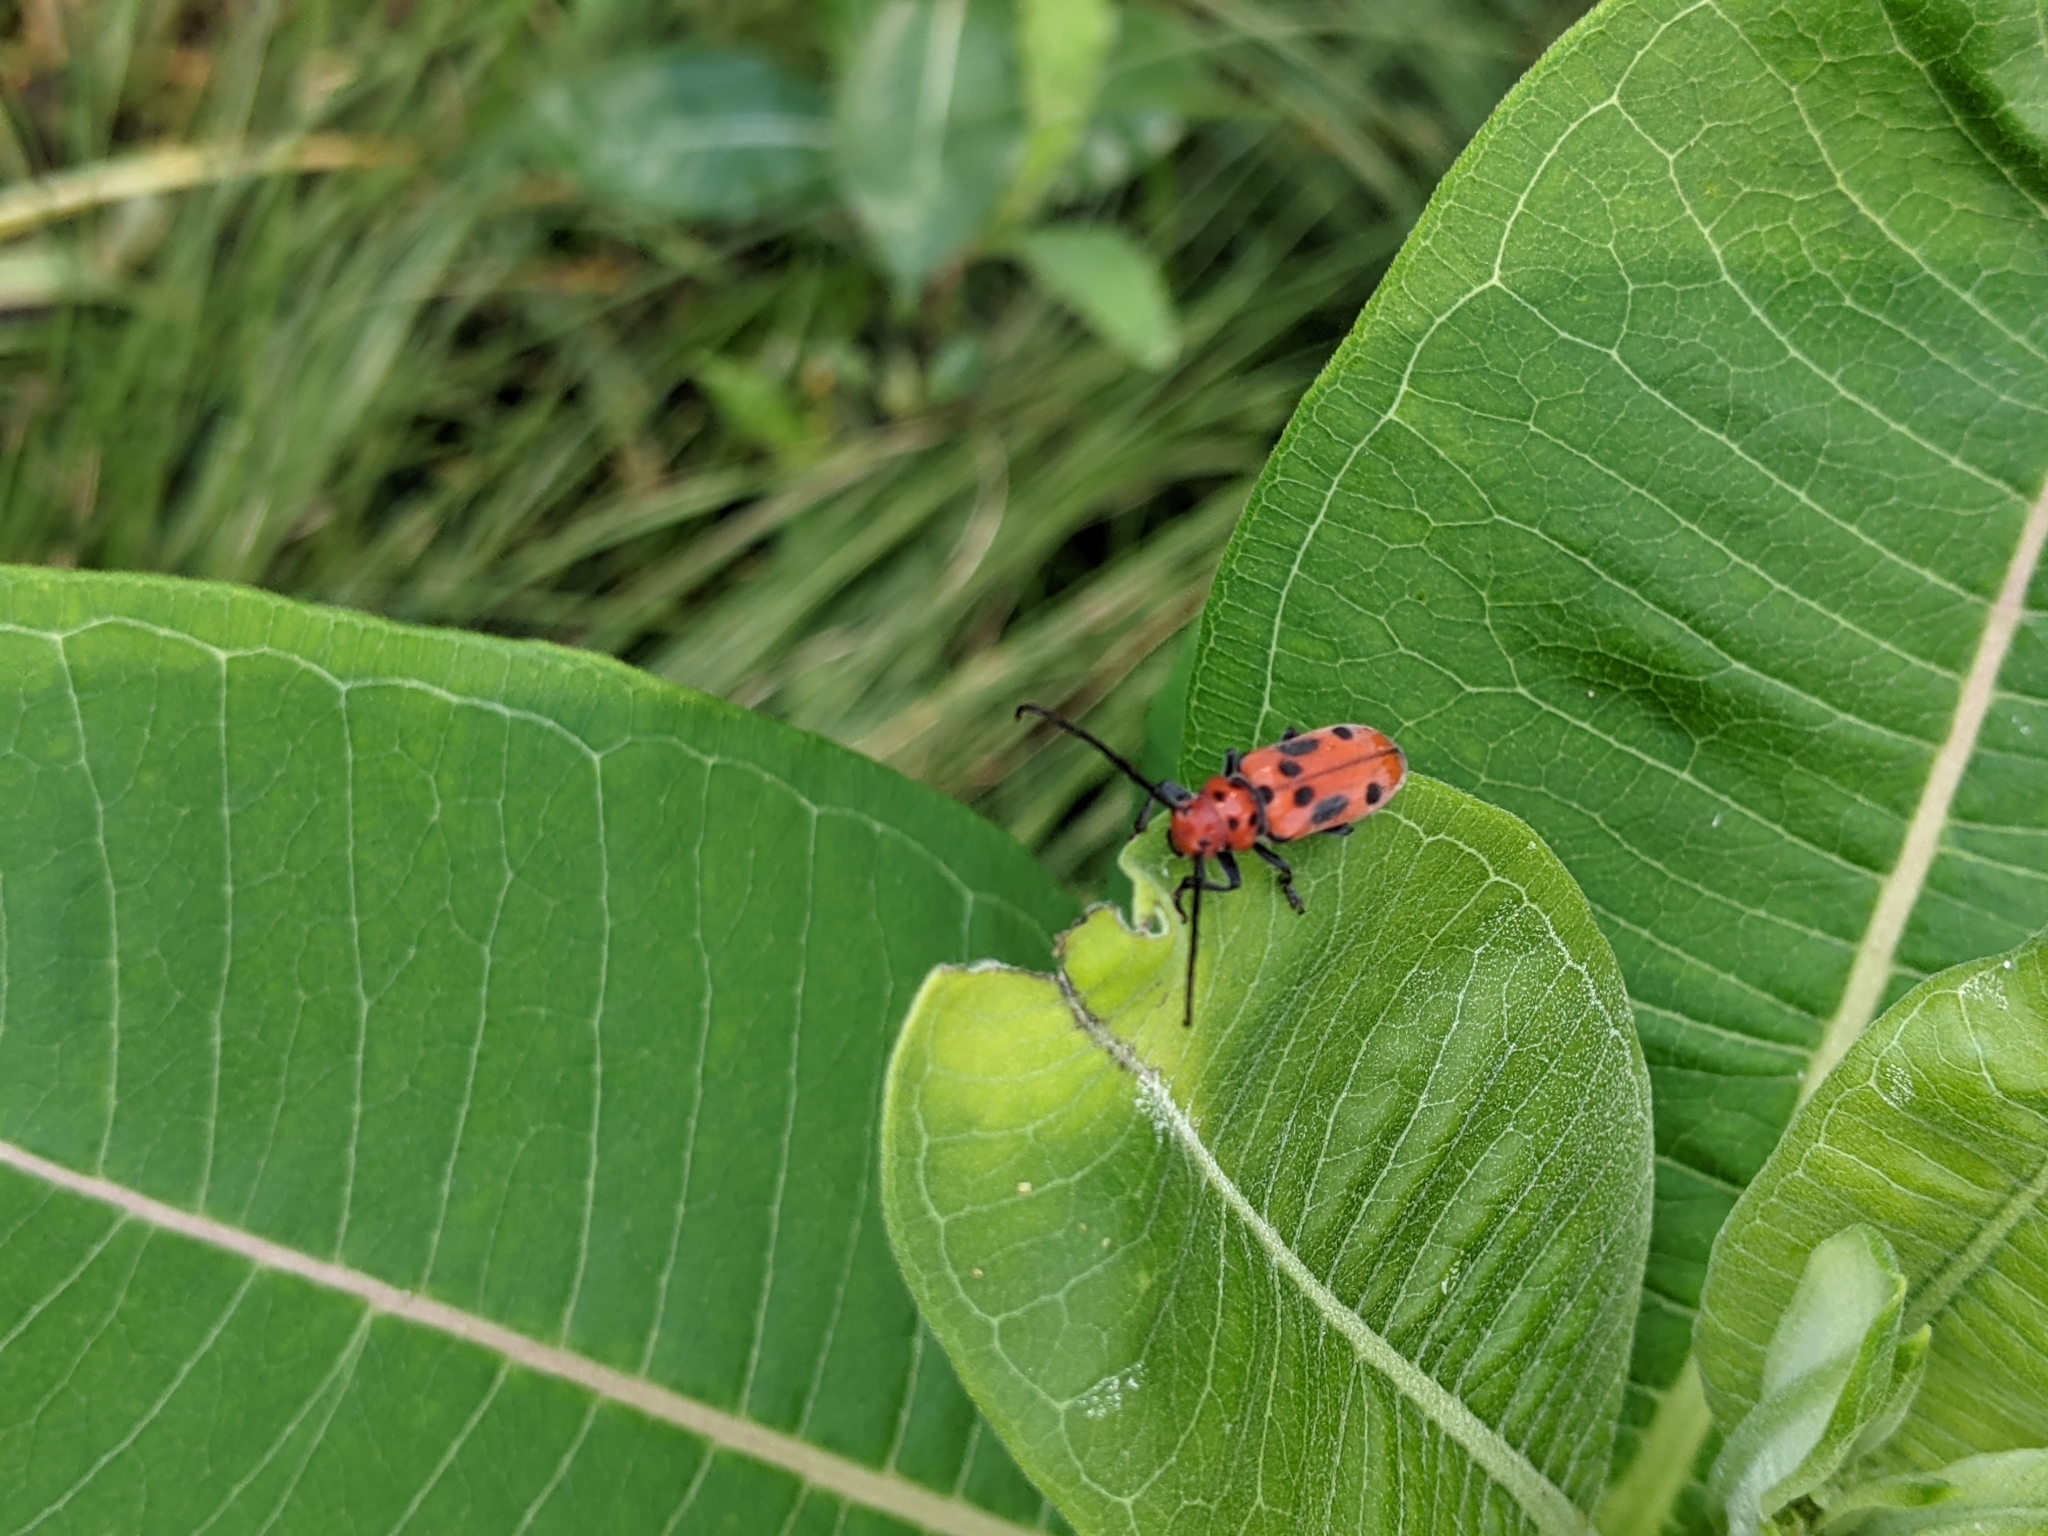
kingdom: Animalia
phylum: Arthropoda
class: Insecta
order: Coleoptera
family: Cerambycidae
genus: Tetraopes
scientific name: Tetraopes tetrophthalmus
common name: Red milkweed beetle
